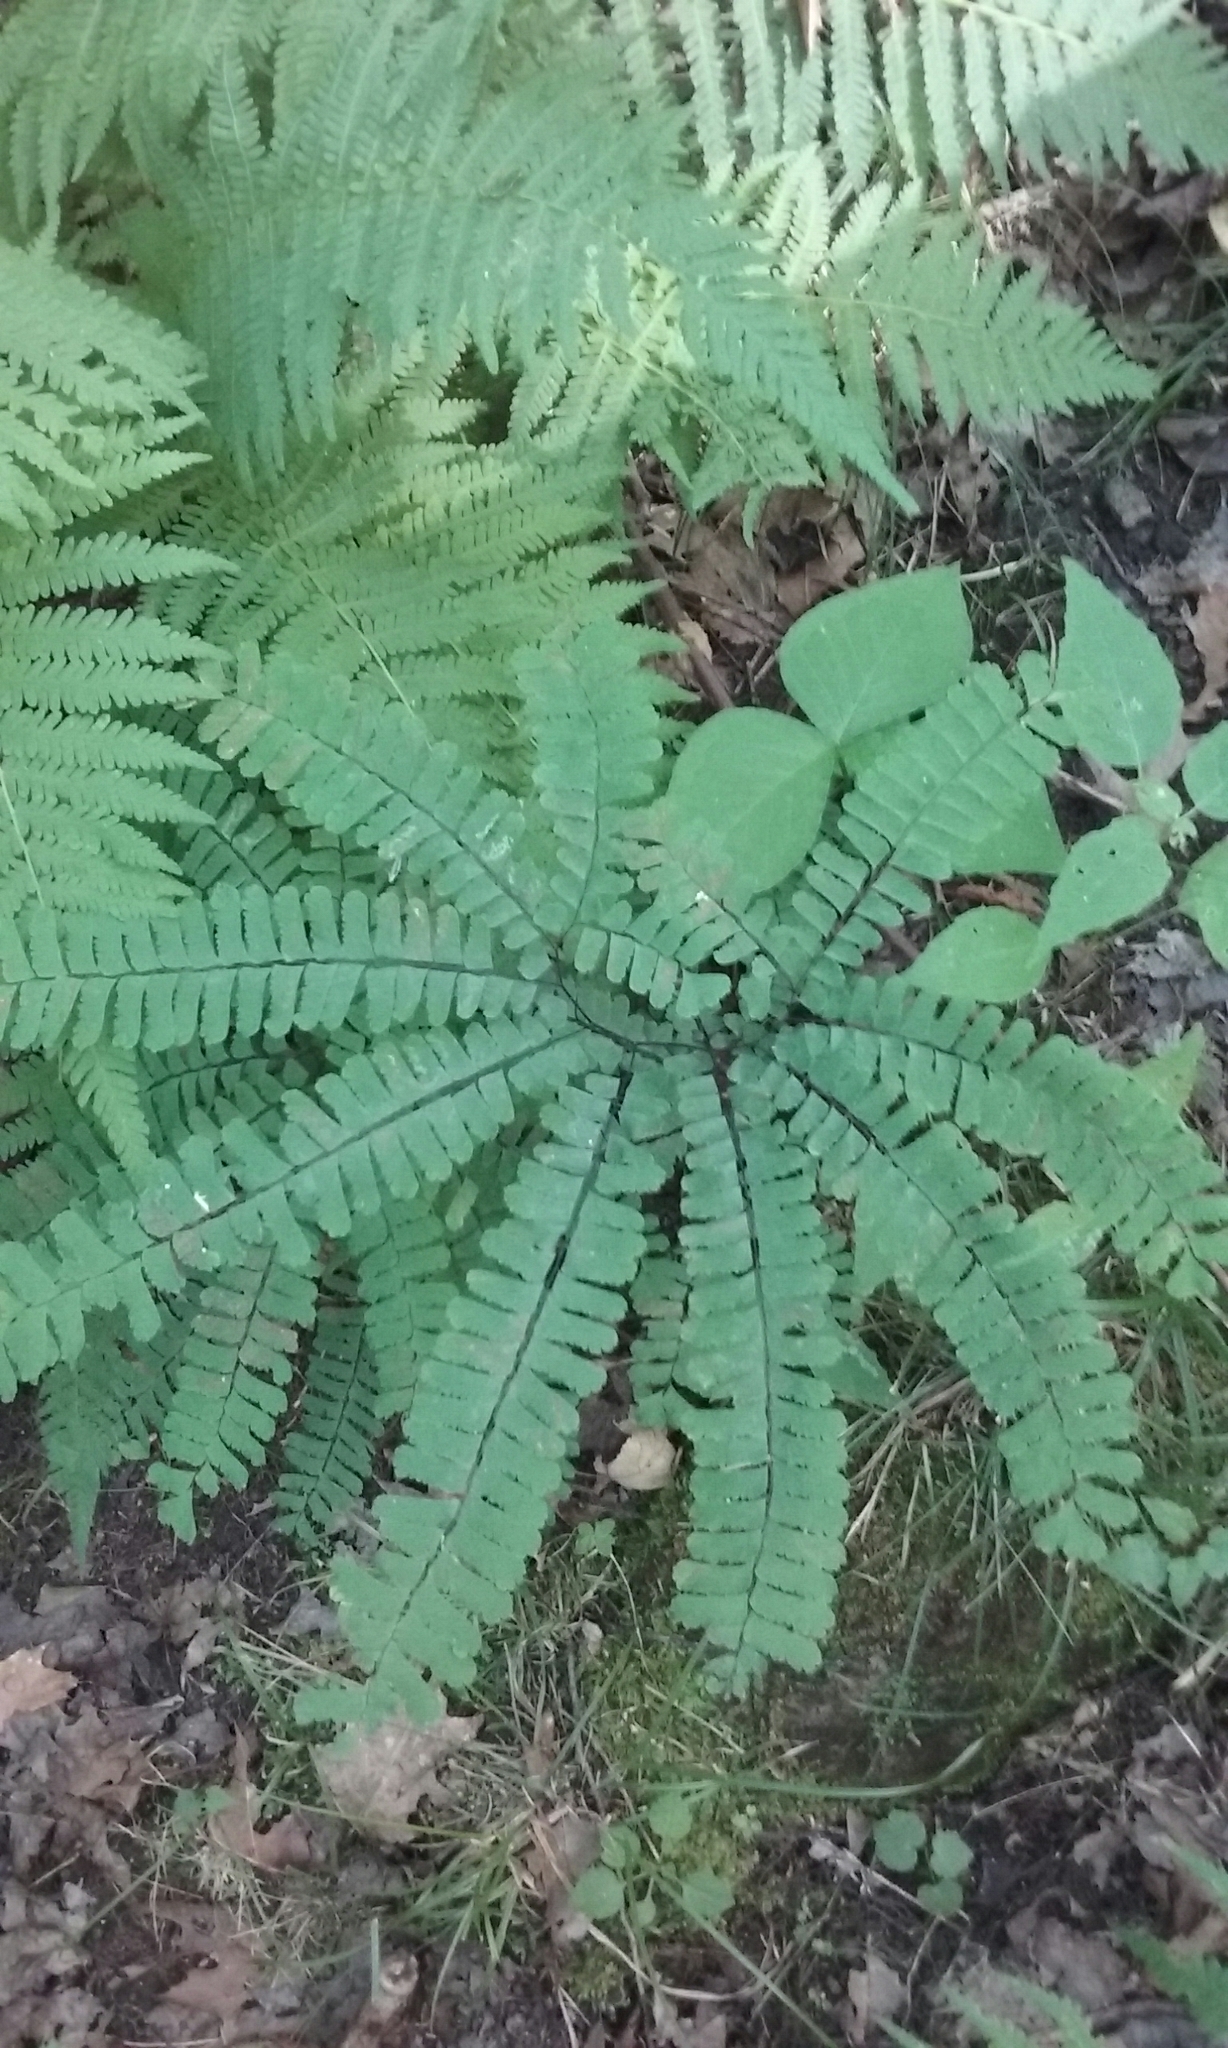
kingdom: Plantae
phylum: Tracheophyta
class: Polypodiopsida
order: Polypodiales
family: Pteridaceae
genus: Adiantum
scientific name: Adiantum pedatum
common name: Five-finger fern
